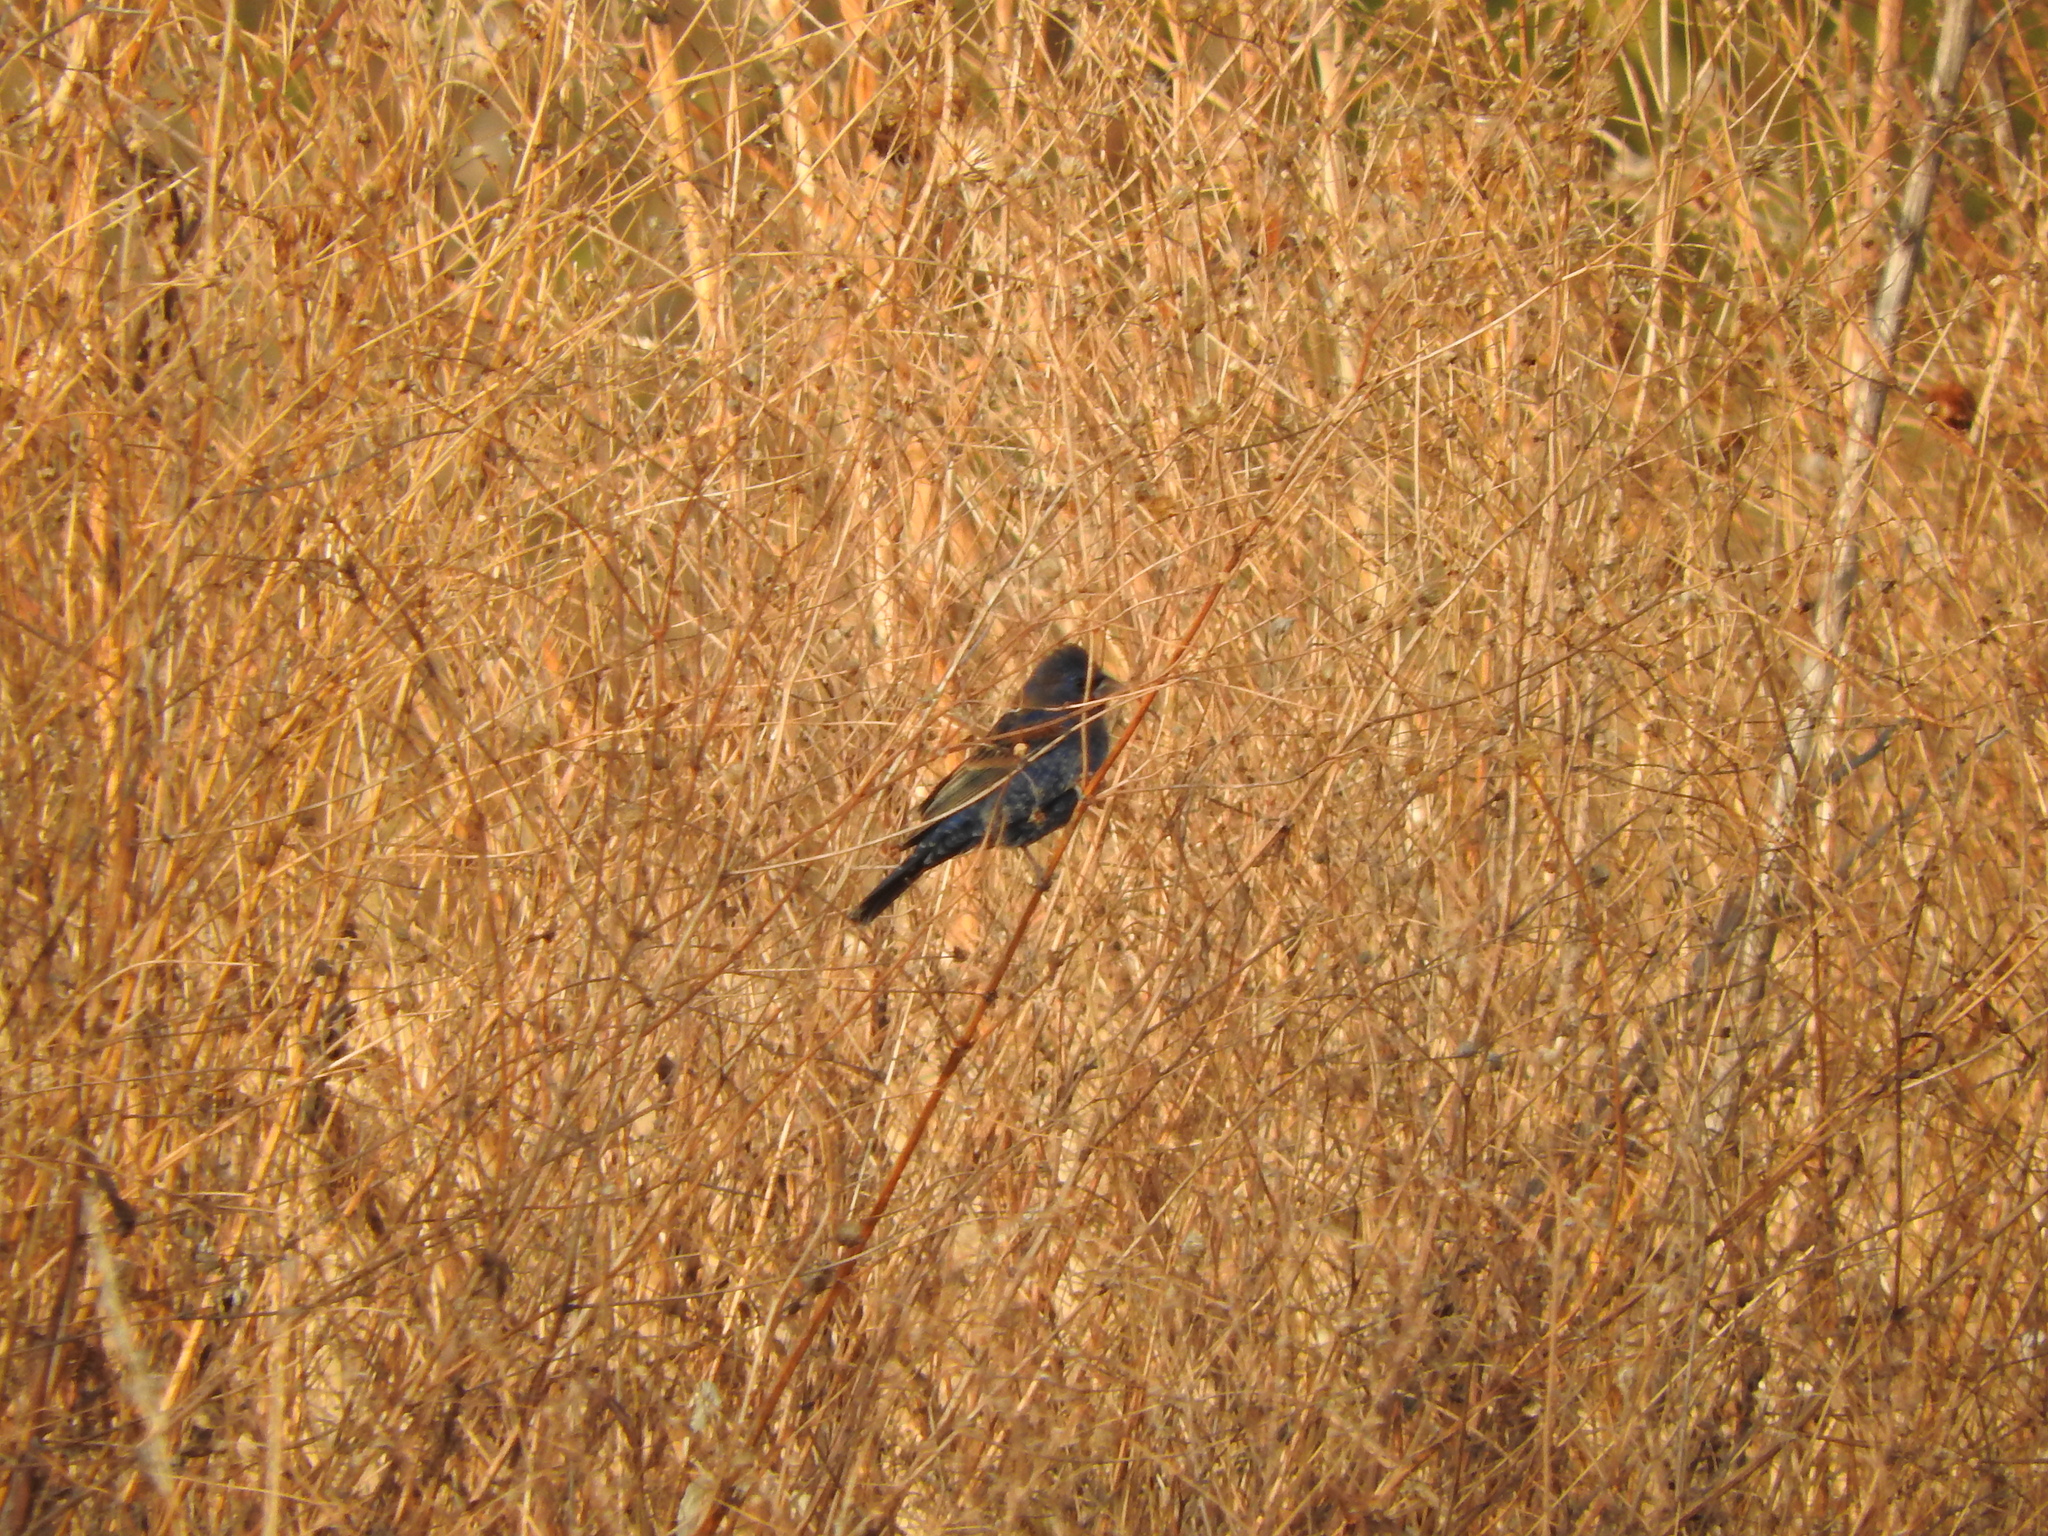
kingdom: Animalia
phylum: Chordata
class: Aves
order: Passeriformes
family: Cardinalidae
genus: Passerina
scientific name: Passerina caerulea
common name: Blue grosbeak
